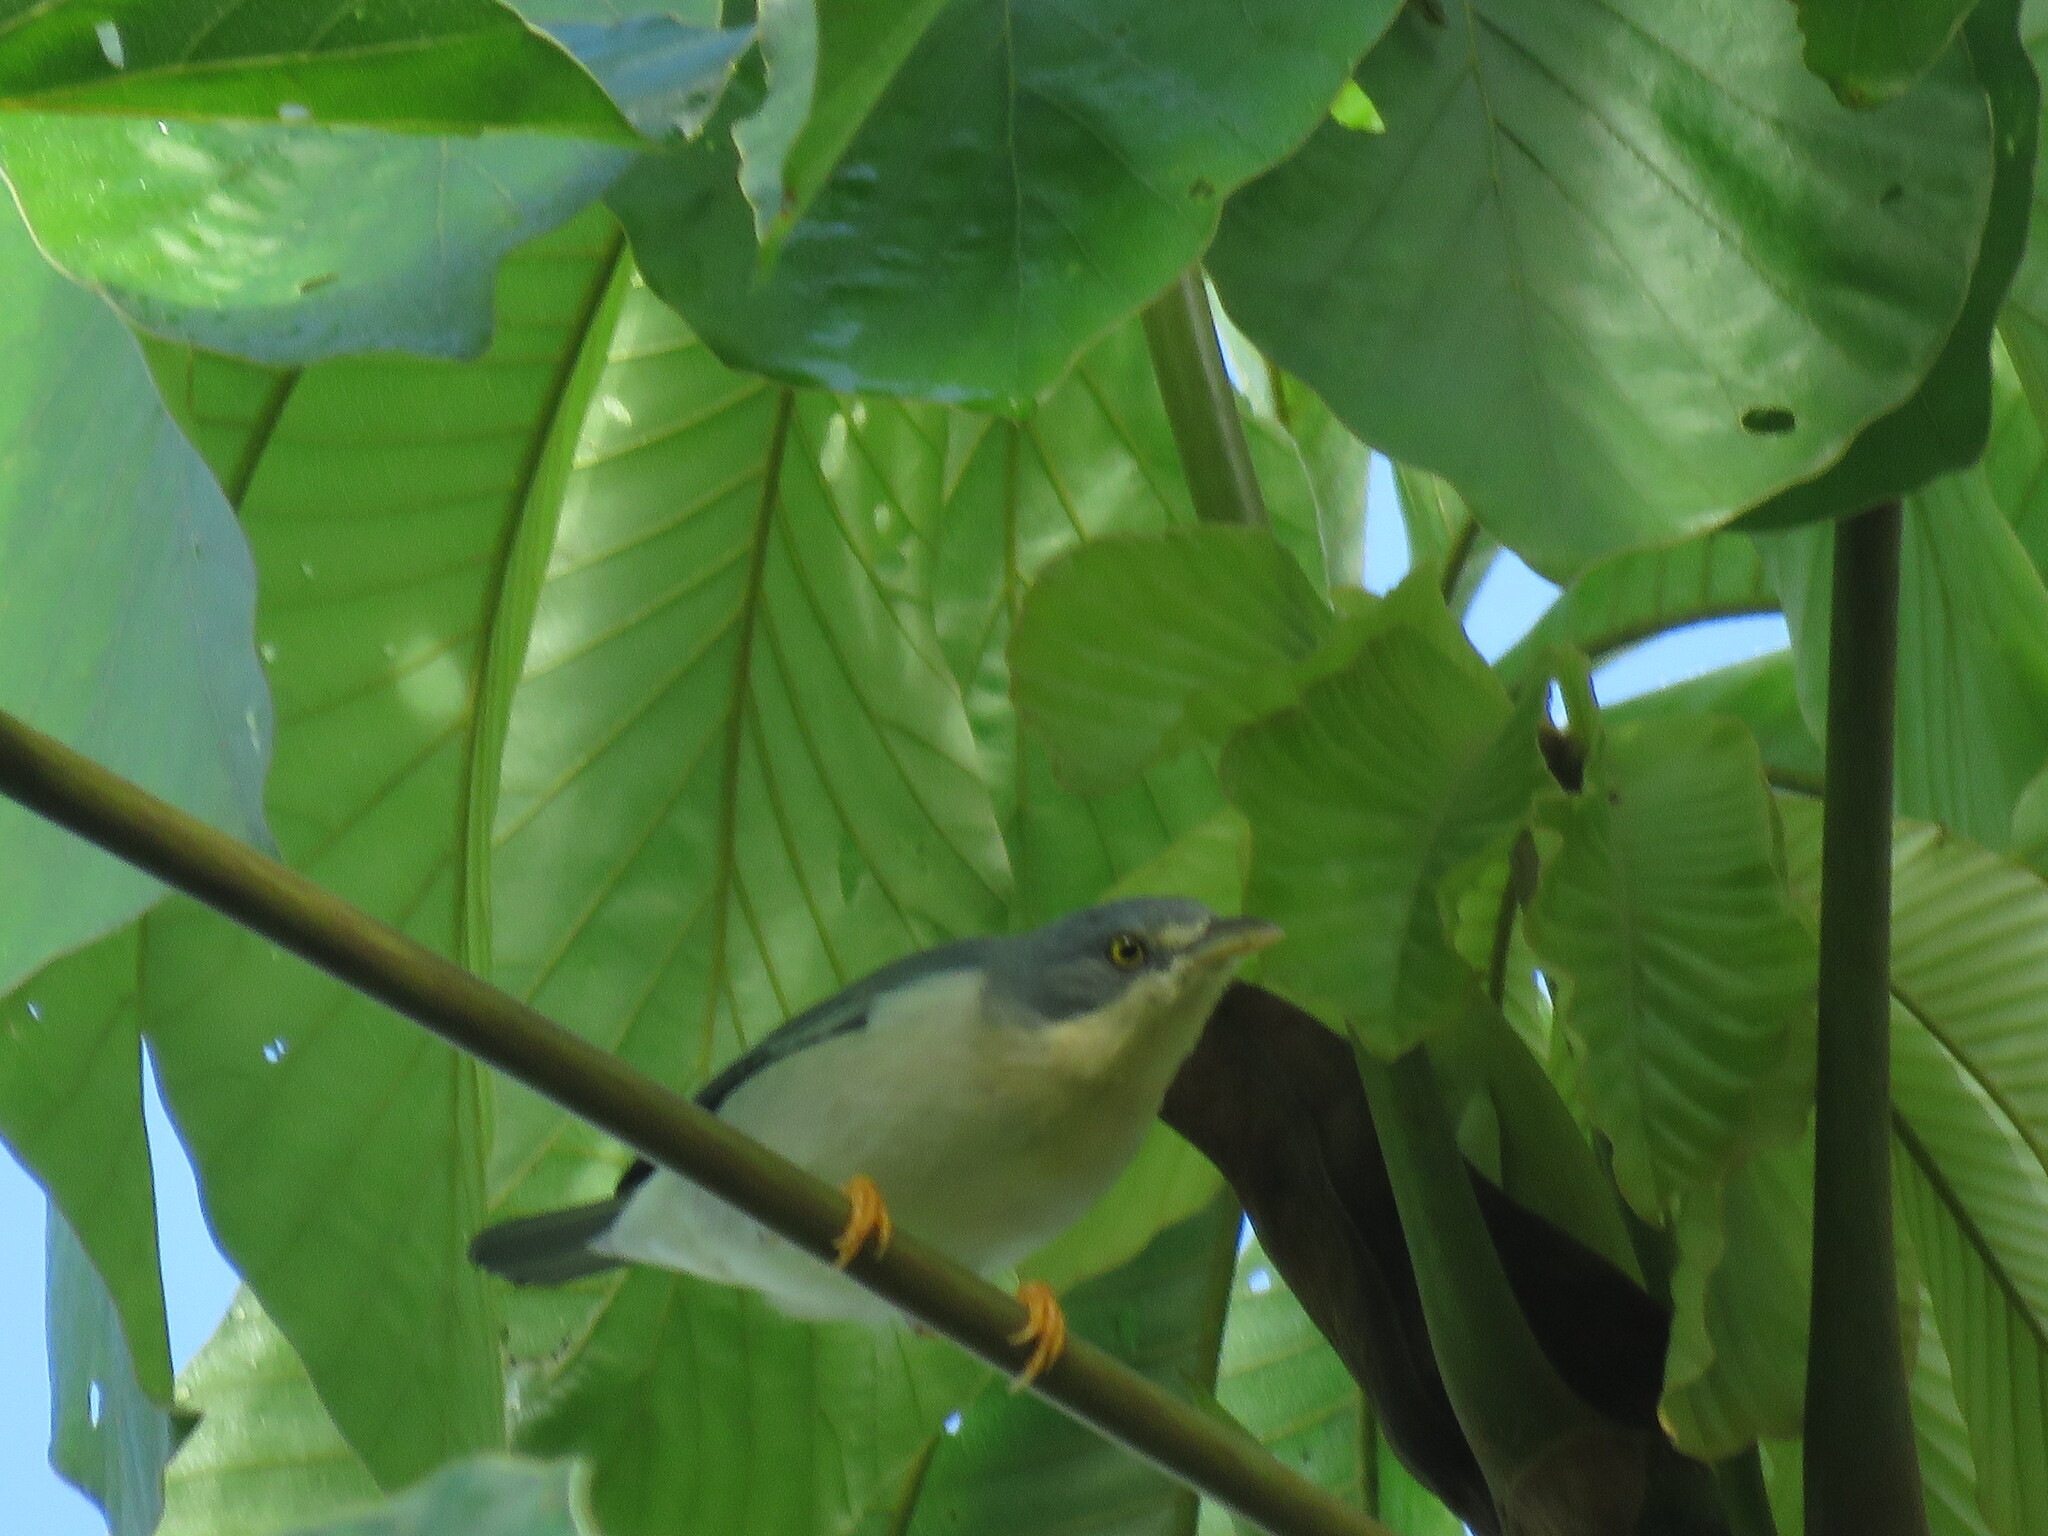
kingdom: Animalia
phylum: Chordata
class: Aves
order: Passeriformes
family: Thraupidae
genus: Nemosia
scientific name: Nemosia pileata
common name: Hooded tanager
